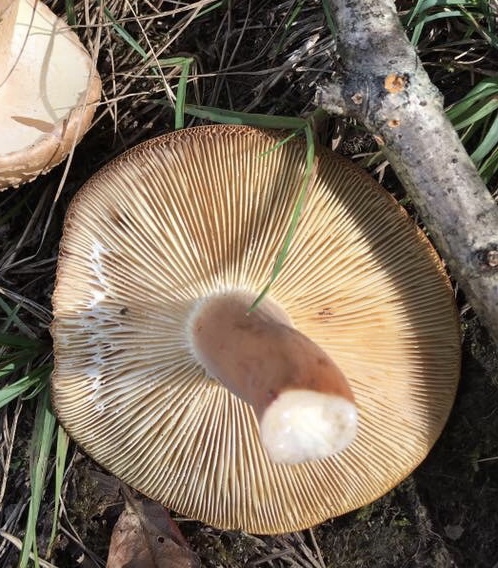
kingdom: Fungi
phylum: Basidiomycota
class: Agaricomycetes
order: Russulales
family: Russulaceae
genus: Lactifluus
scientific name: Lactifluus volemus
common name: Fishy milkcap
